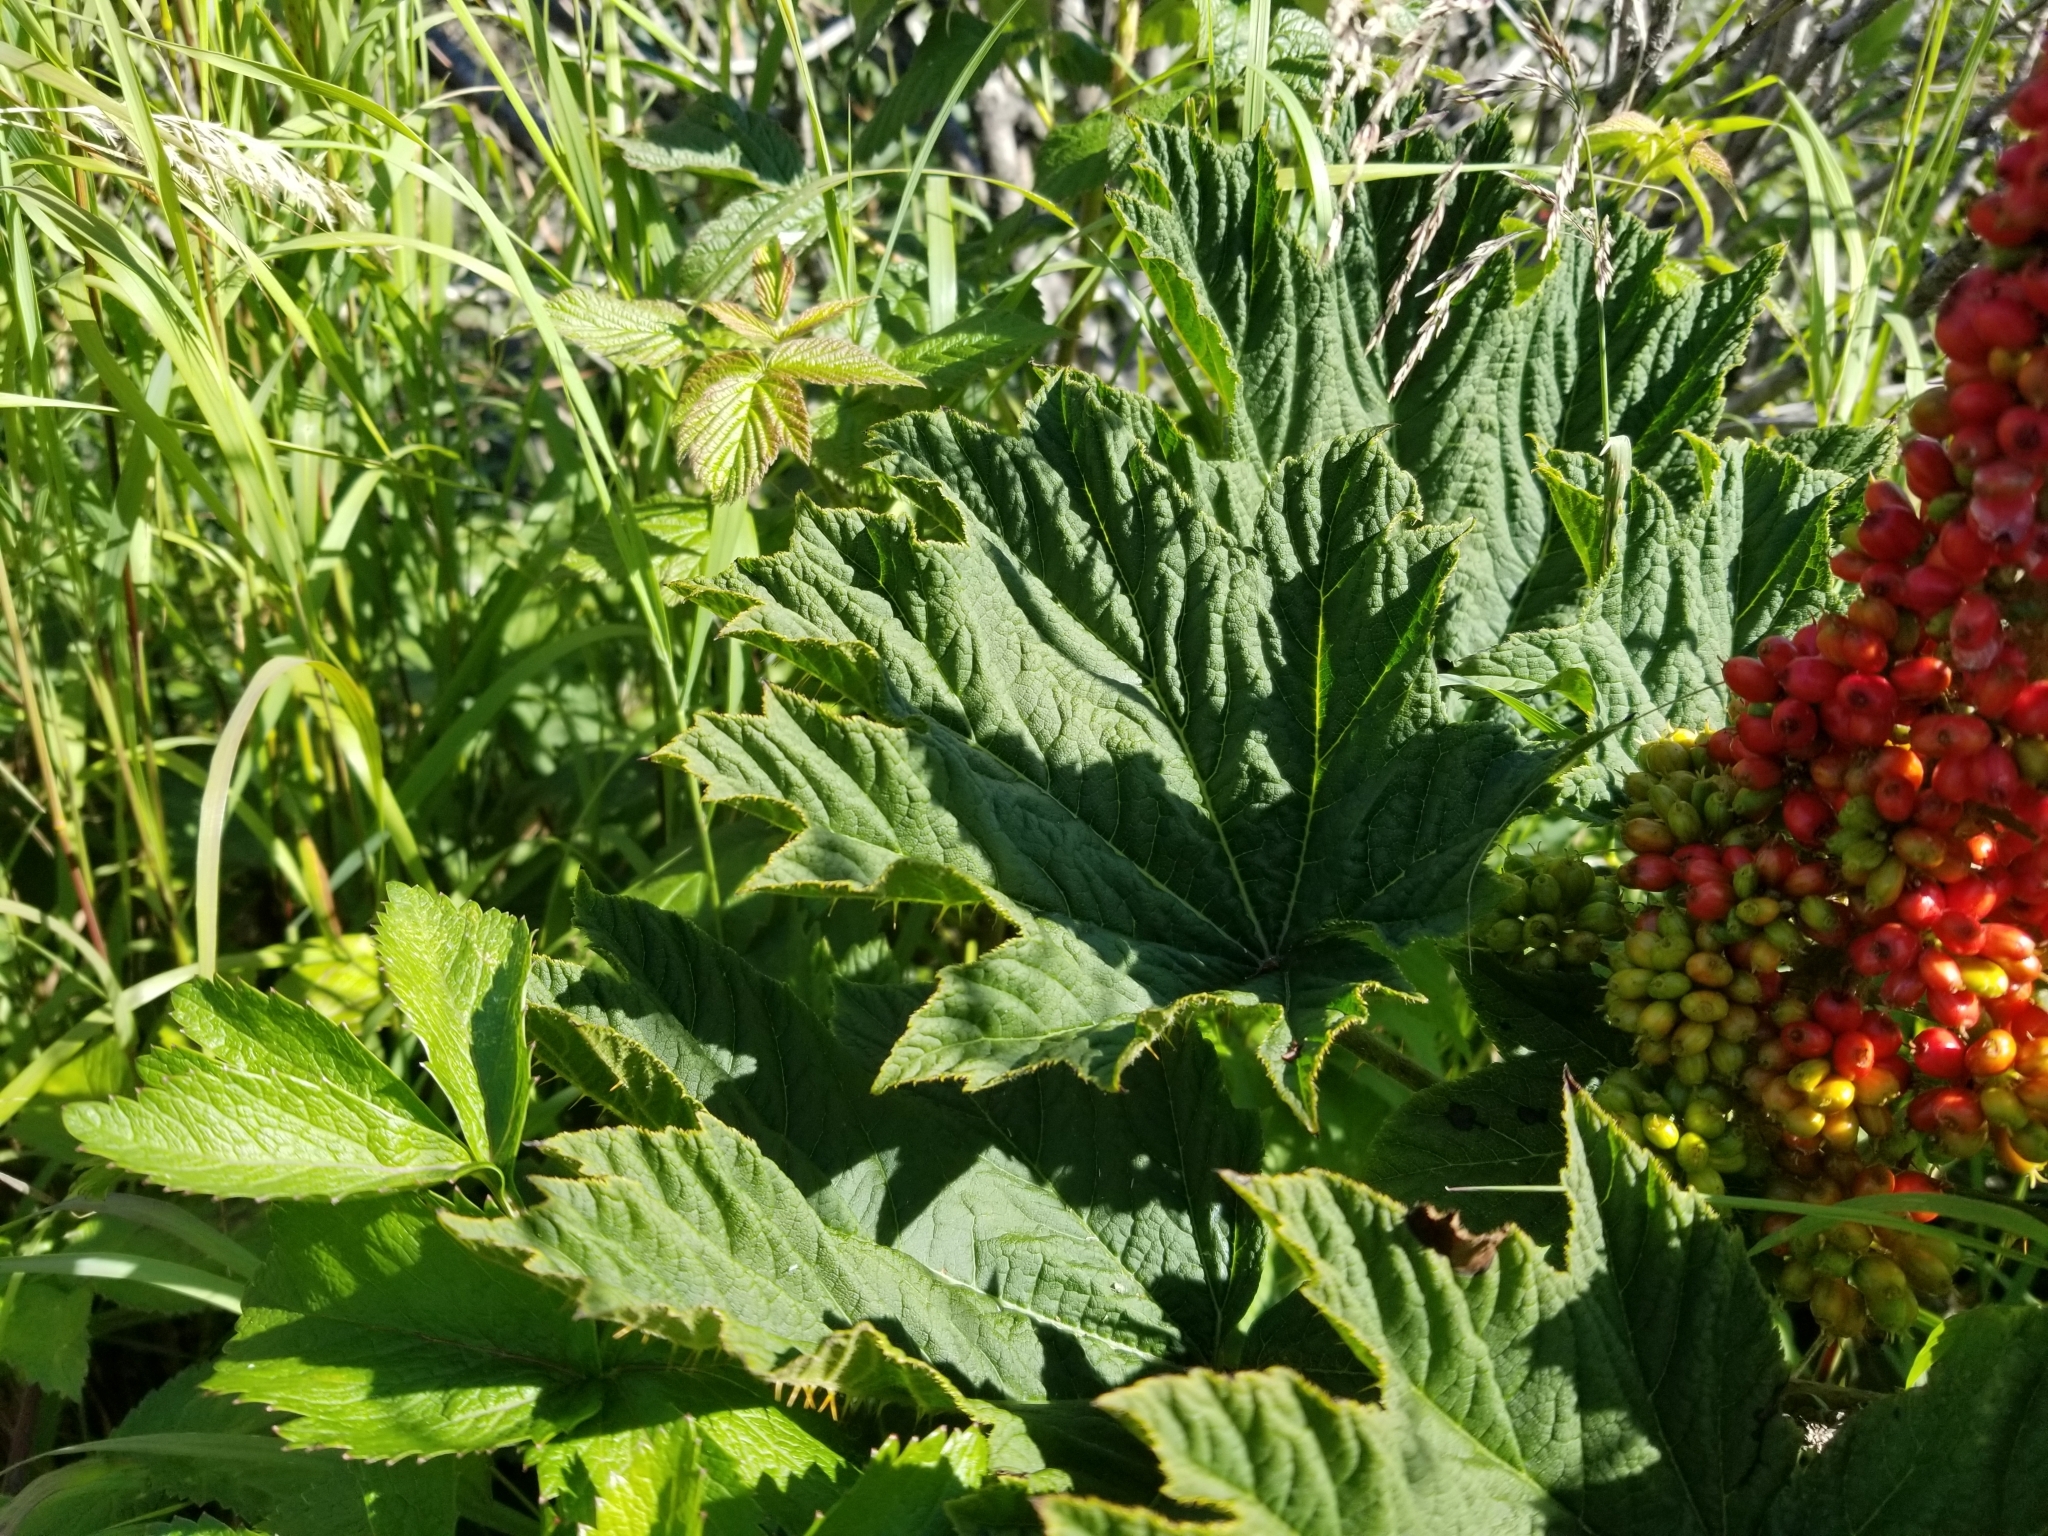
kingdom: Plantae
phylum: Tracheophyta
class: Magnoliopsida
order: Apiales
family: Araliaceae
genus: Oplopanax
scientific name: Oplopanax horridus
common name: Devil's walking-stick
